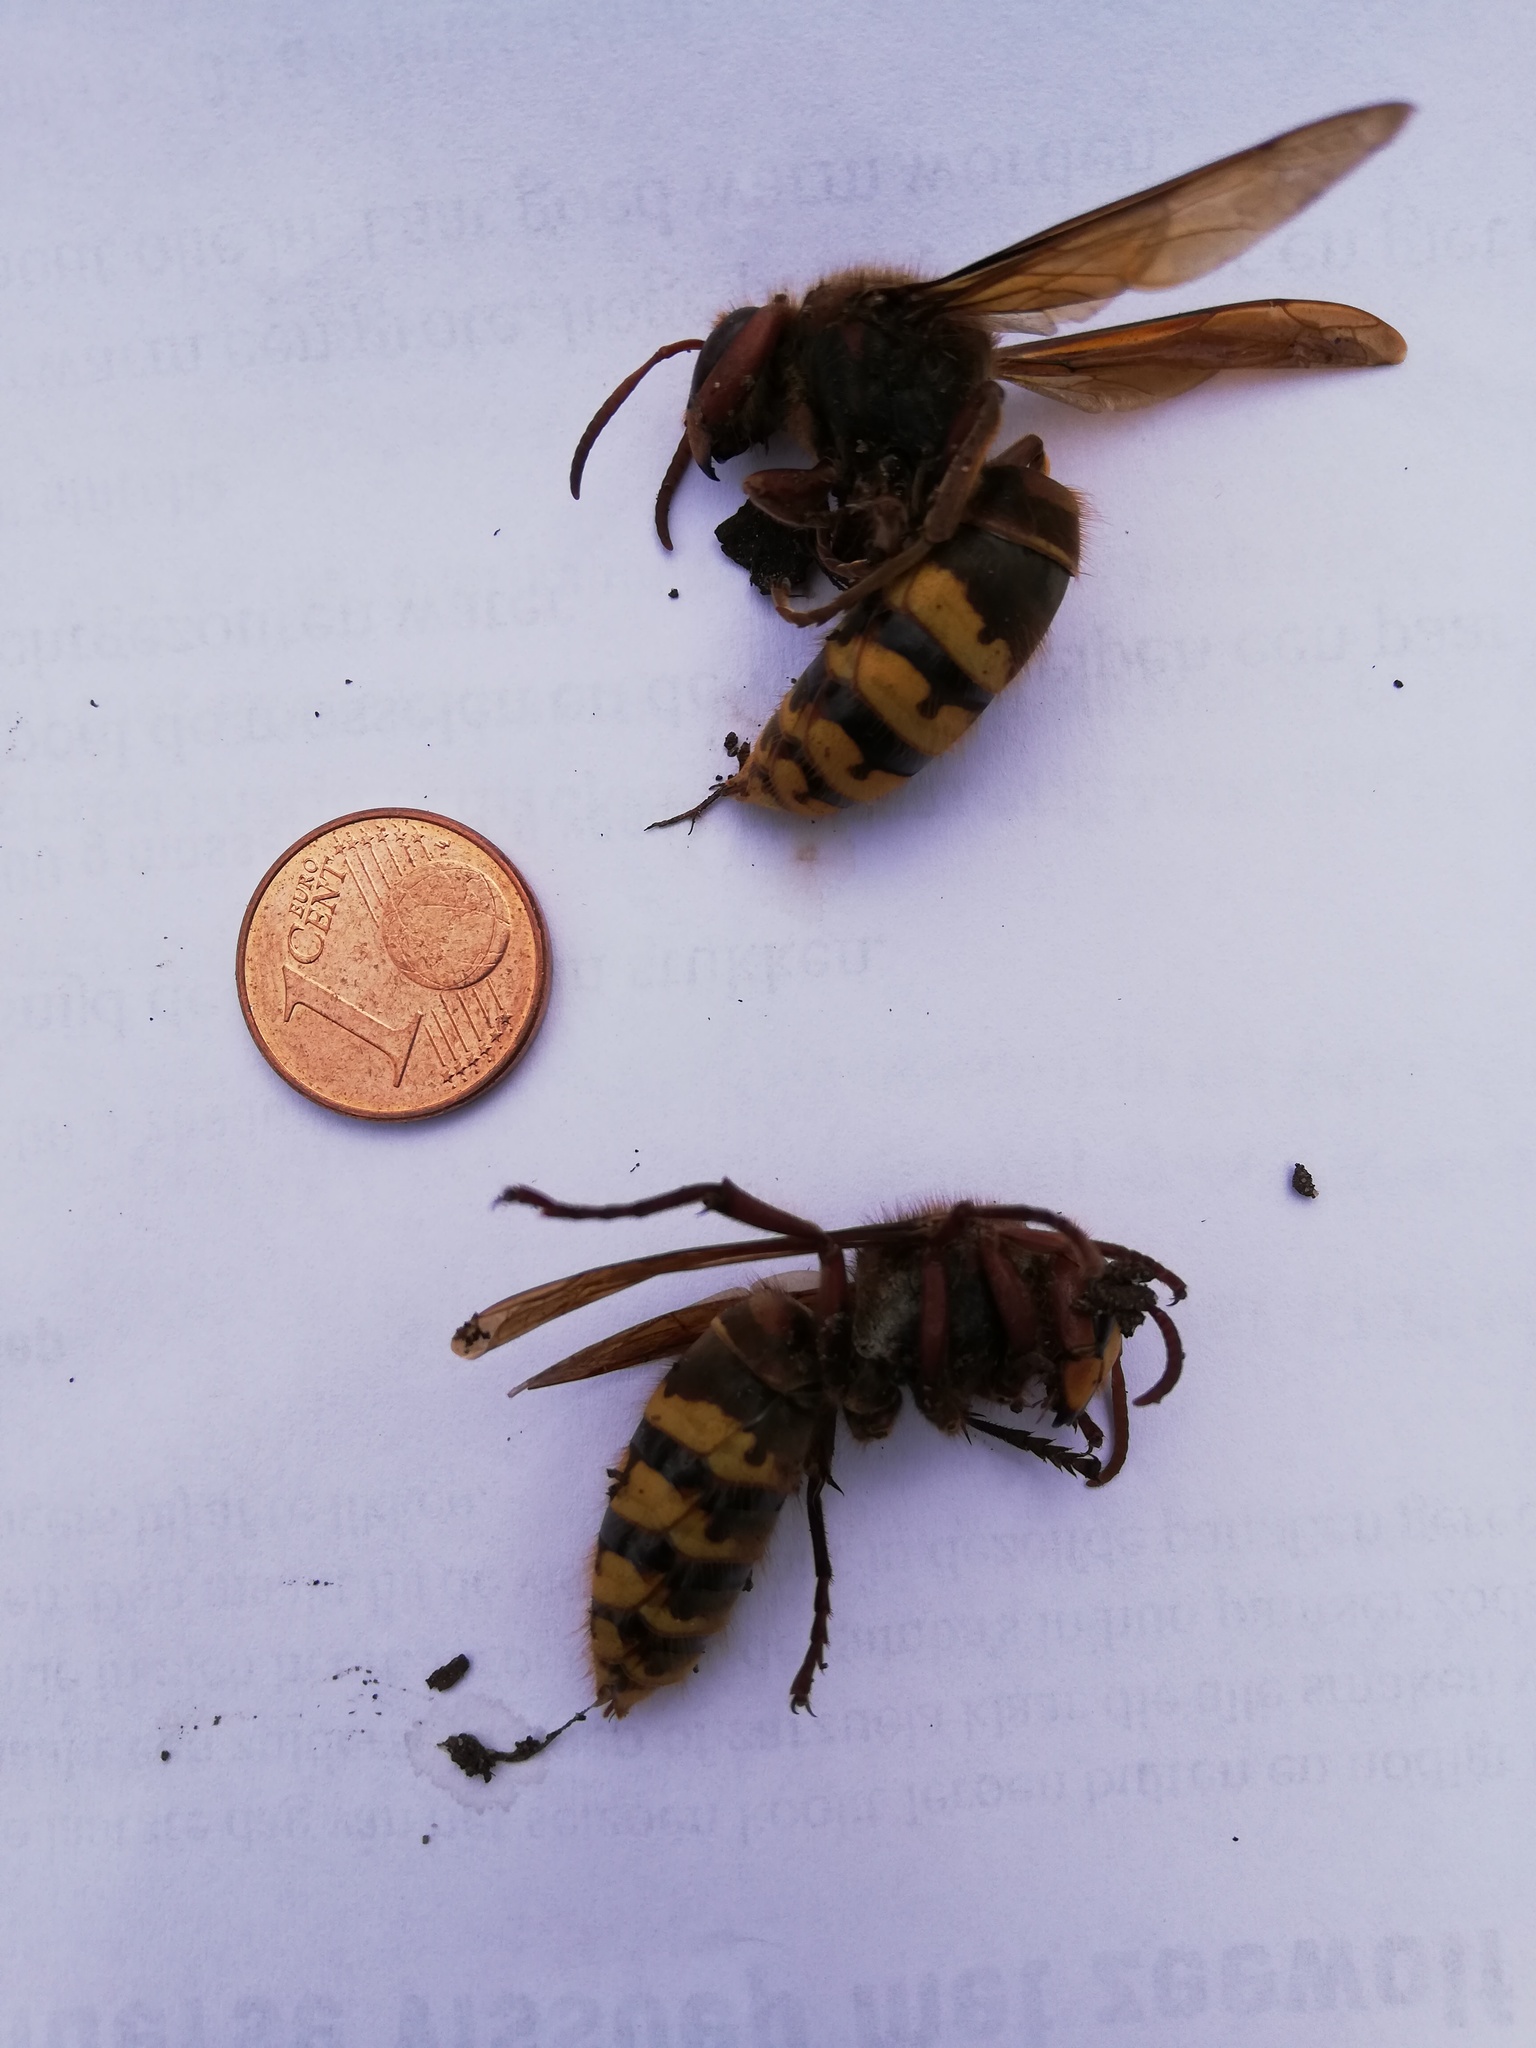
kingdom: Animalia
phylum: Arthropoda
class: Insecta
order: Hymenoptera
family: Vespidae
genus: Vespa
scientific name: Vespa crabro
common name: Hornet
